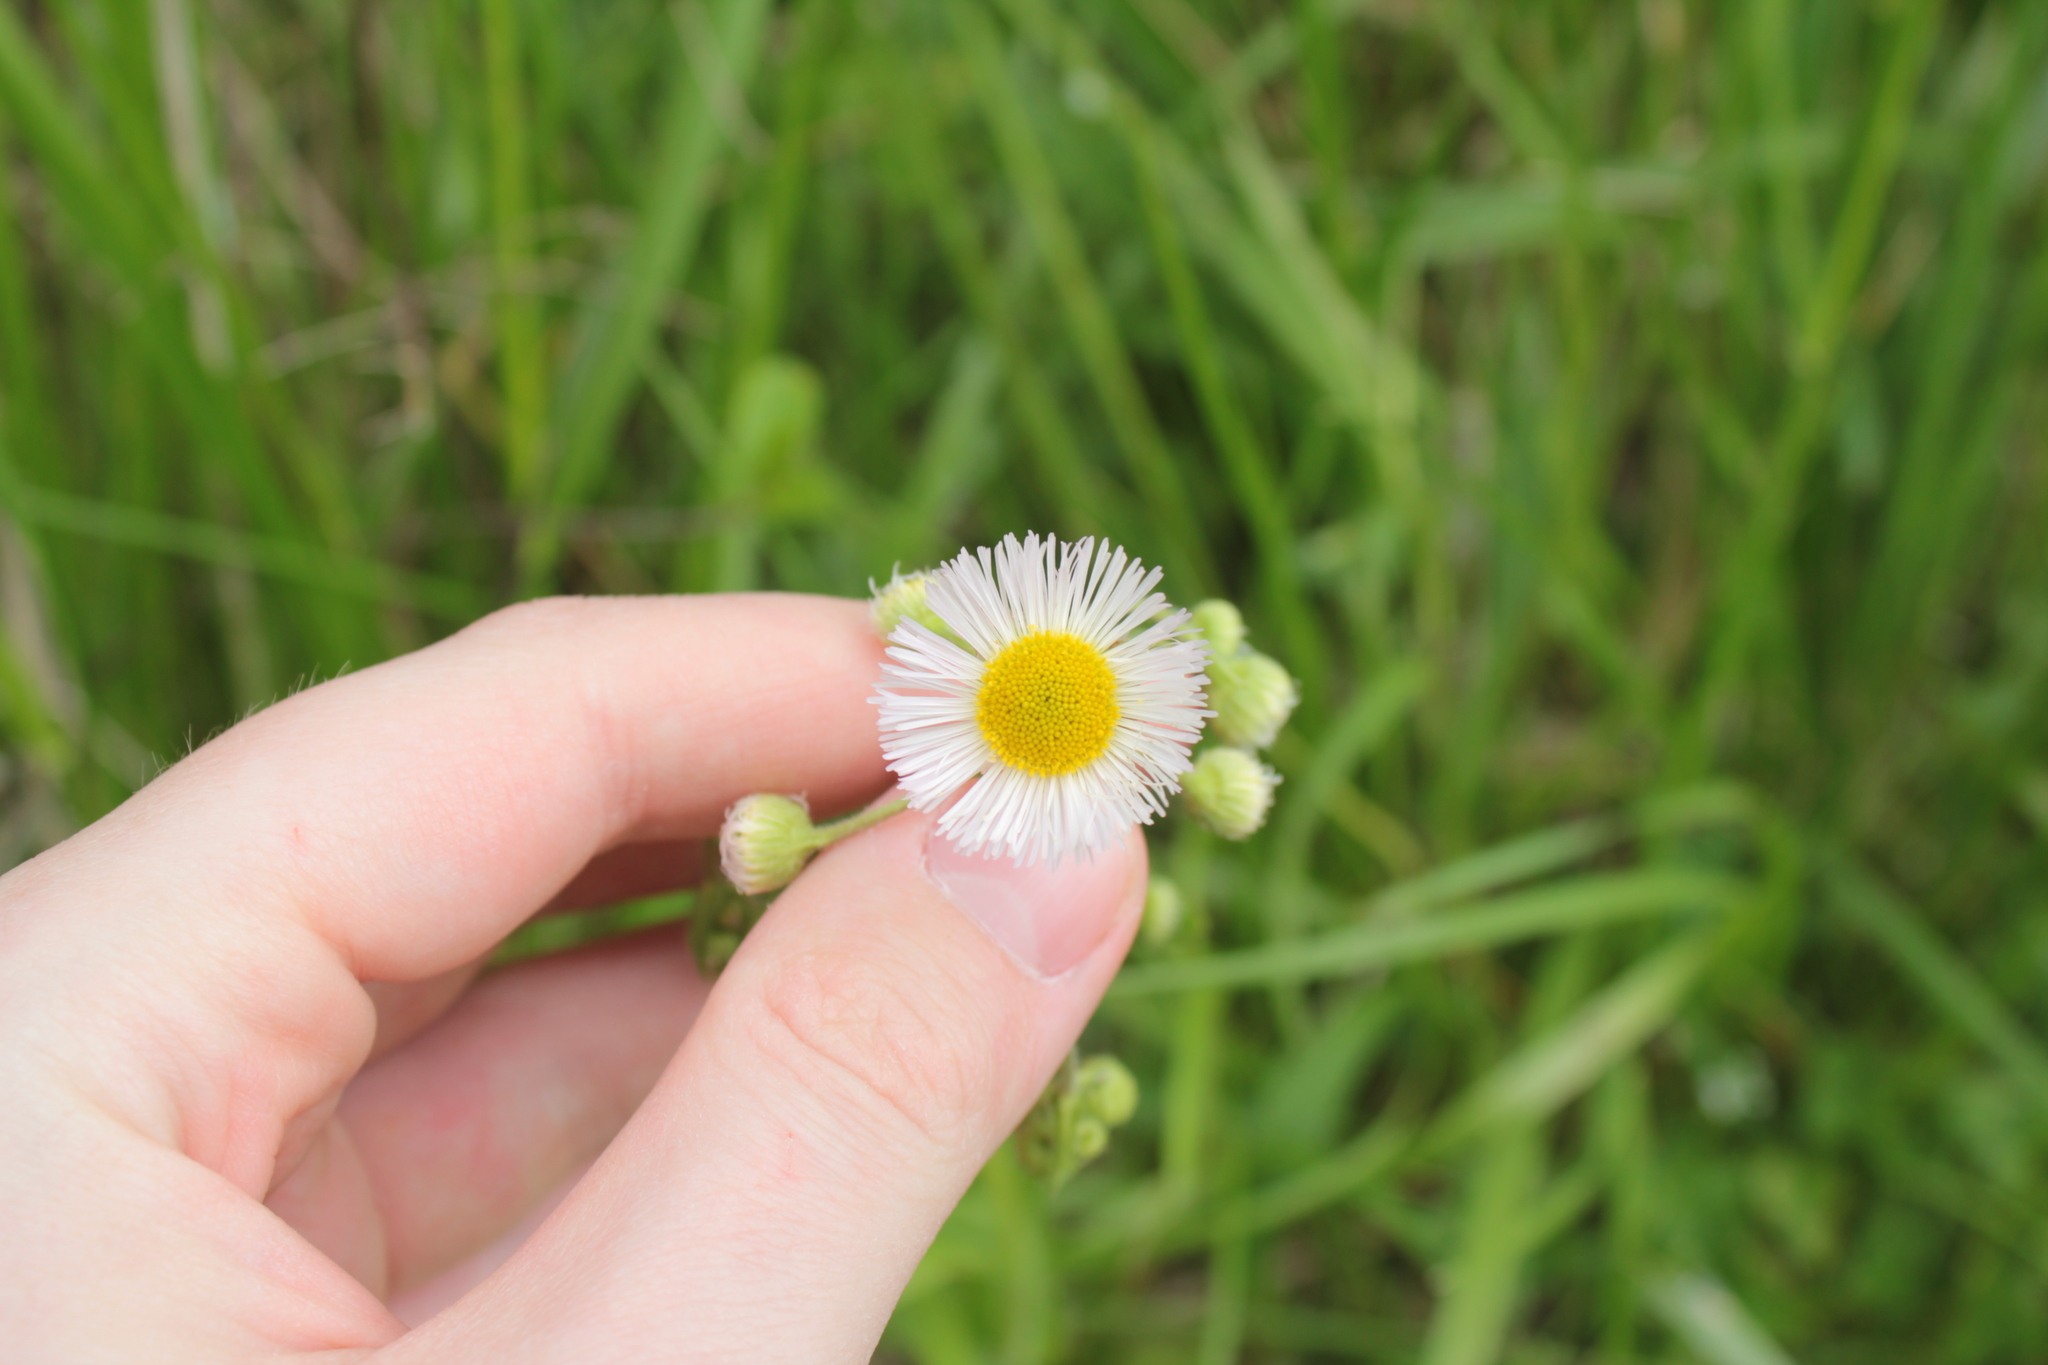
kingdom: Plantae
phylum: Tracheophyta
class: Magnoliopsida
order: Asterales
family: Asteraceae
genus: Erigeron
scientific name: Erigeron philadelphicus
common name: Robin's-plantain
